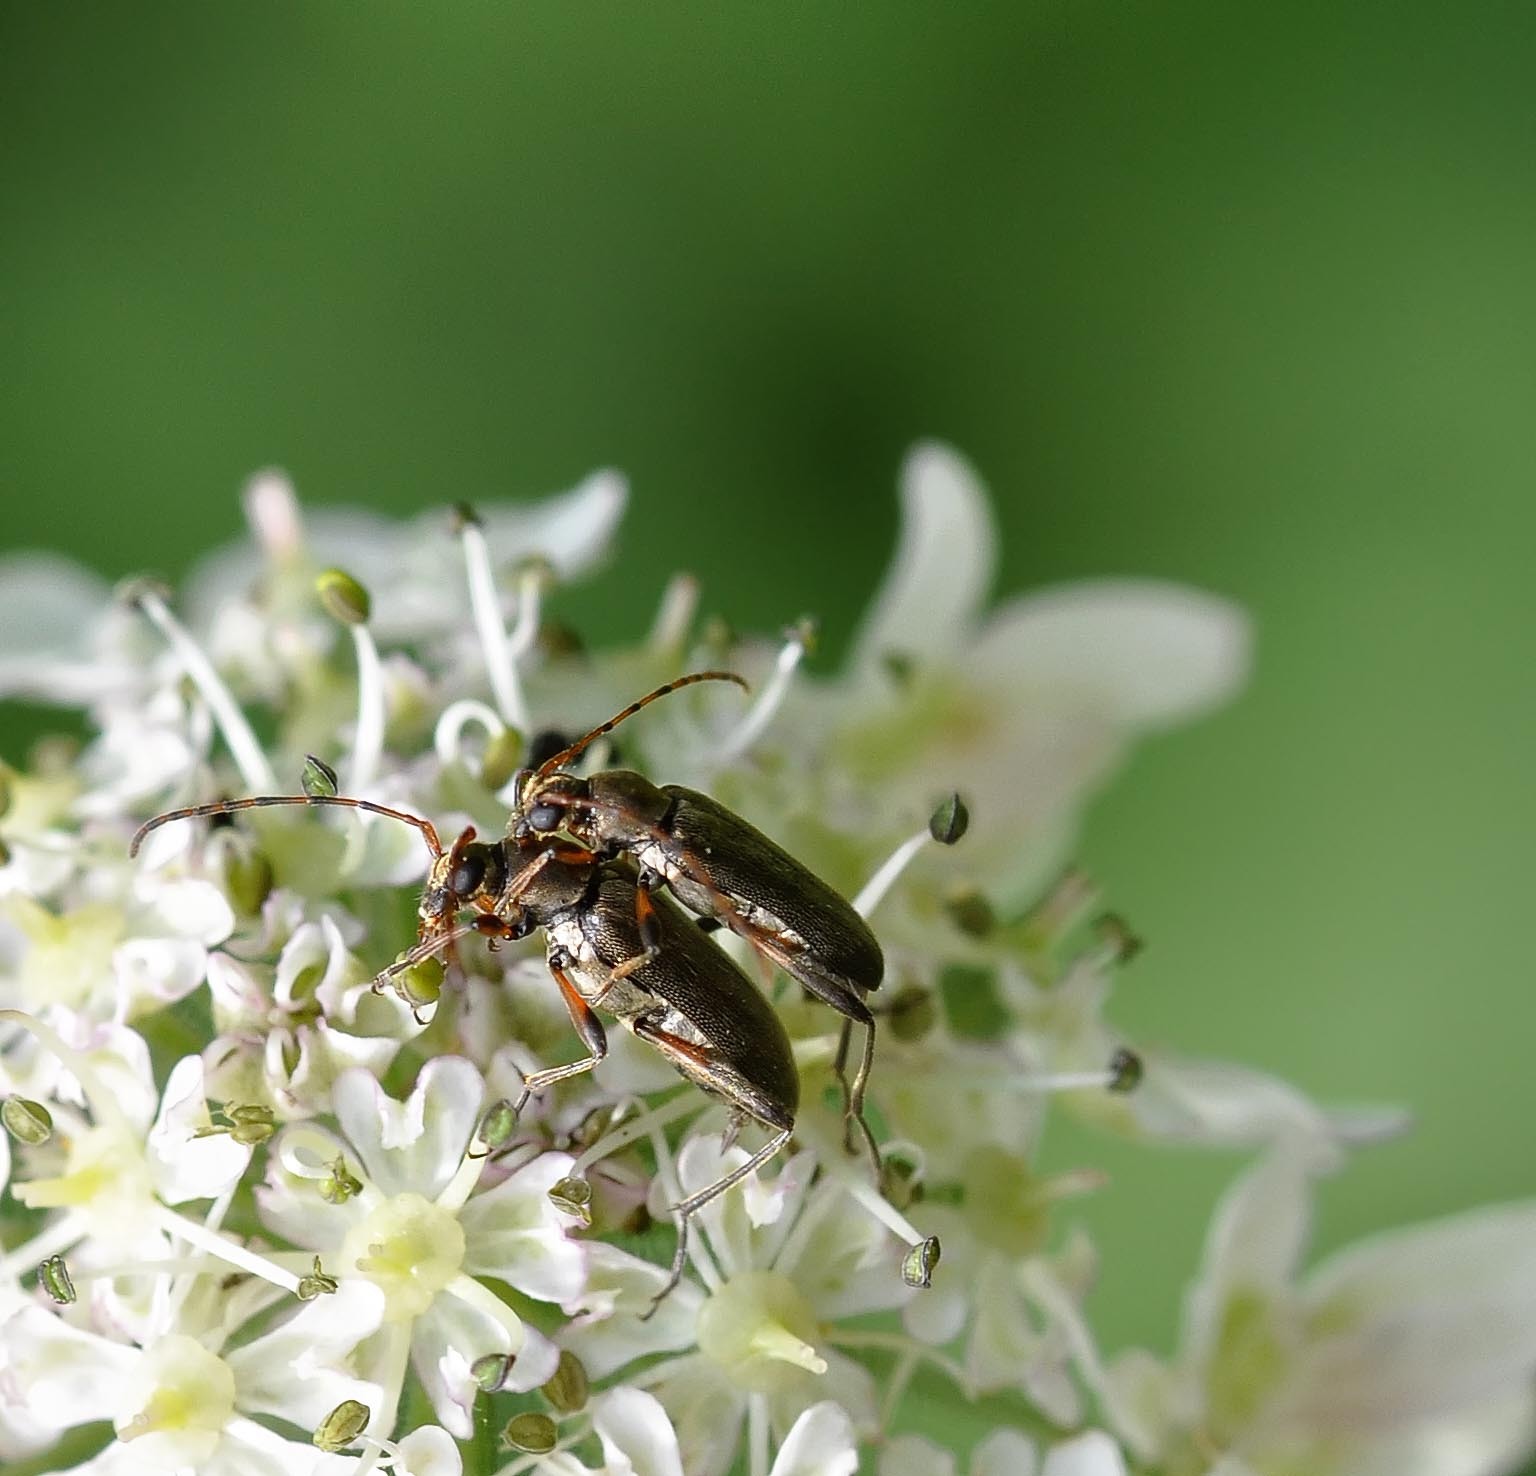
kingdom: Animalia
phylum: Arthropoda
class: Insecta
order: Coleoptera
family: Cerambycidae
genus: Grammoptera
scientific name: Grammoptera ruficornis
